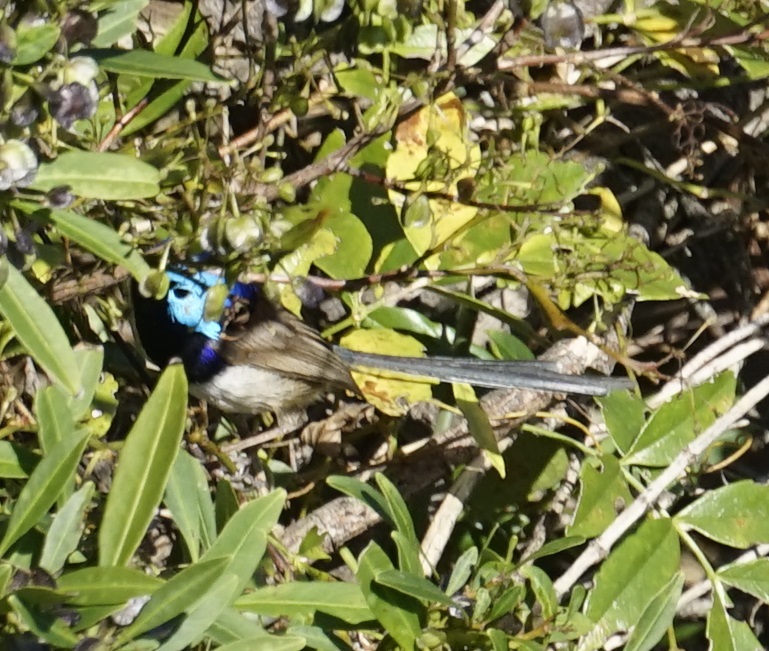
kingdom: Animalia
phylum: Chordata
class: Aves
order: Passeriformes
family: Maluridae
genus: Malurus
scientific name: Malurus lamberti
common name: Variegated fairywren
